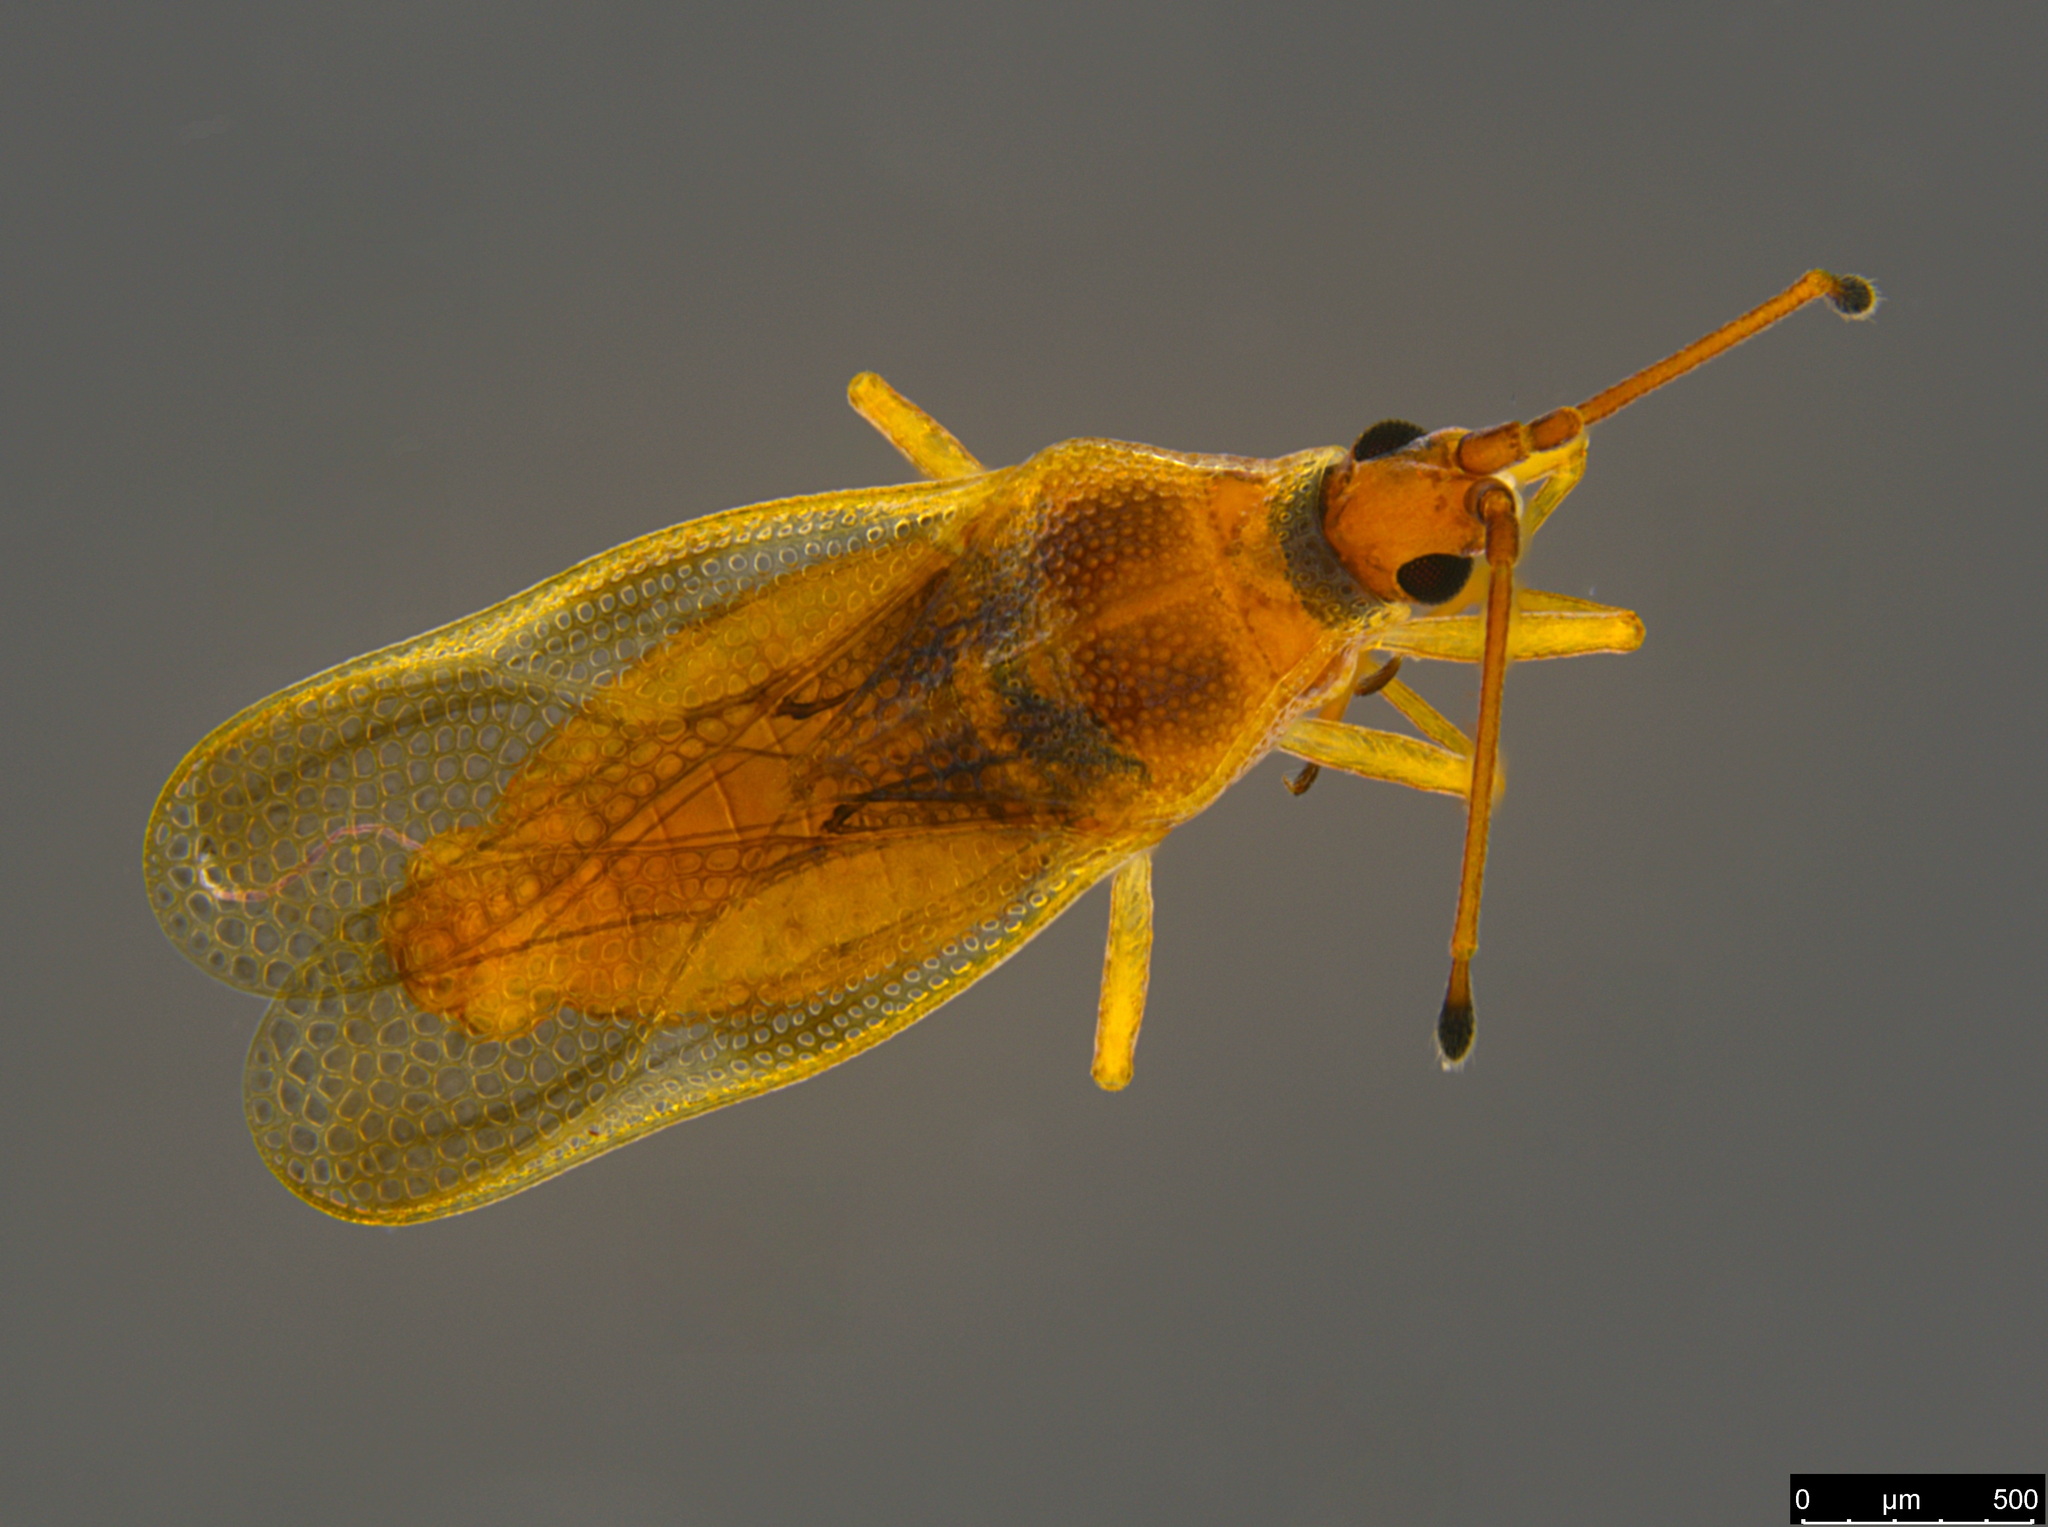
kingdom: Animalia
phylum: Arthropoda
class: Insecta
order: Hemiptera
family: Tingidae
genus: Malandiola
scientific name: Malandiola similis
